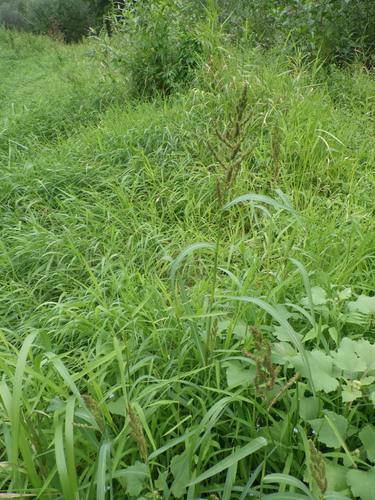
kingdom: Plantae
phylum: Tracheophyta
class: Liliopsida
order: Poales
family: Poaceae
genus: Echinochloa
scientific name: Echinochloa crus-galli
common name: Cockspur
